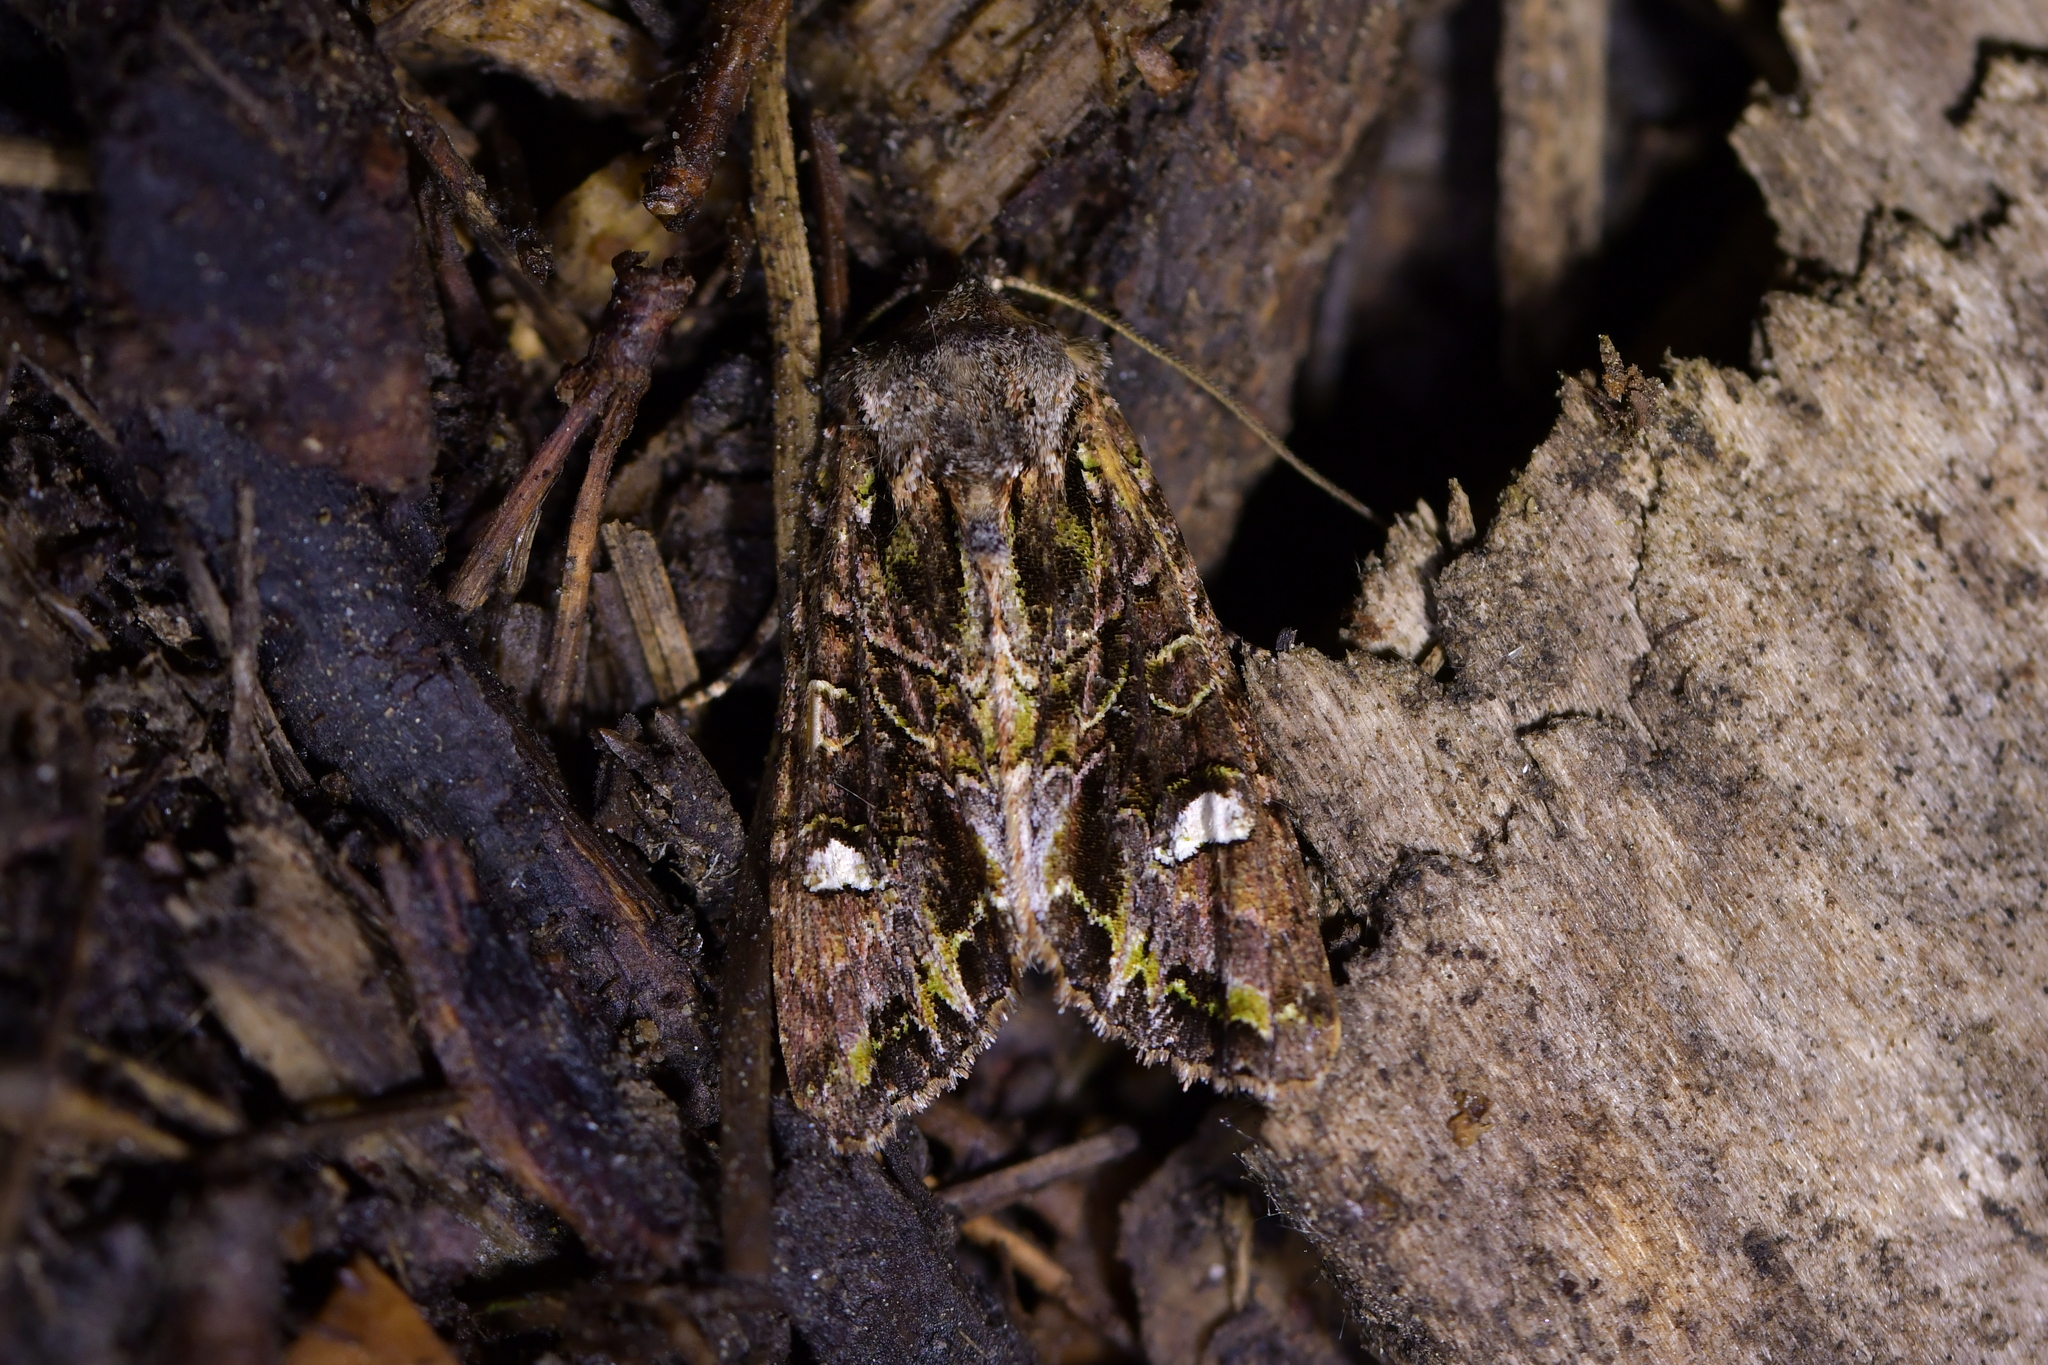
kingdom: Animalia
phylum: Arthropoda
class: Insecta
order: Lepidoptera
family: Noctuidae
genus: Ichneutica
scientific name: Ichneutica insignis
